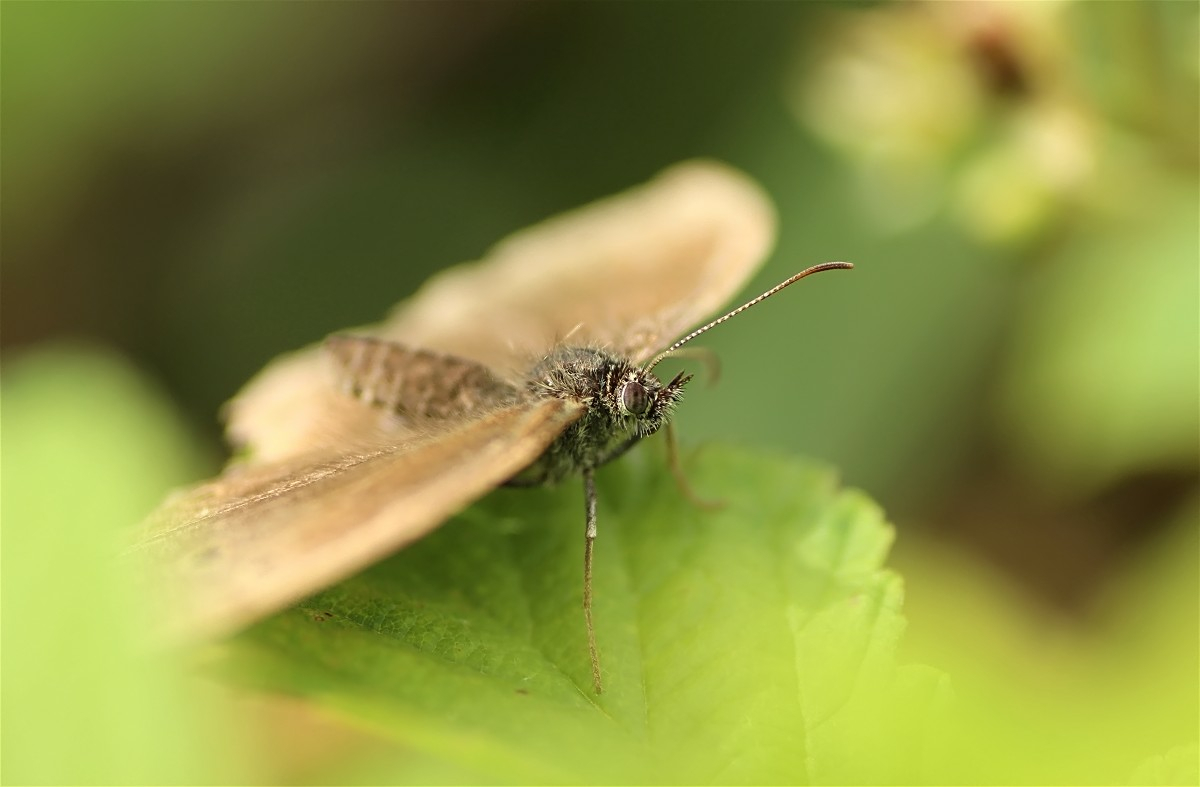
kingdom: Animalia
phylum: Arthropoda
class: Insecta
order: Lepidoptera
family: Nymphalidae
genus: Aphantopus
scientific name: Aphantopus hyperantus
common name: Ringlet
